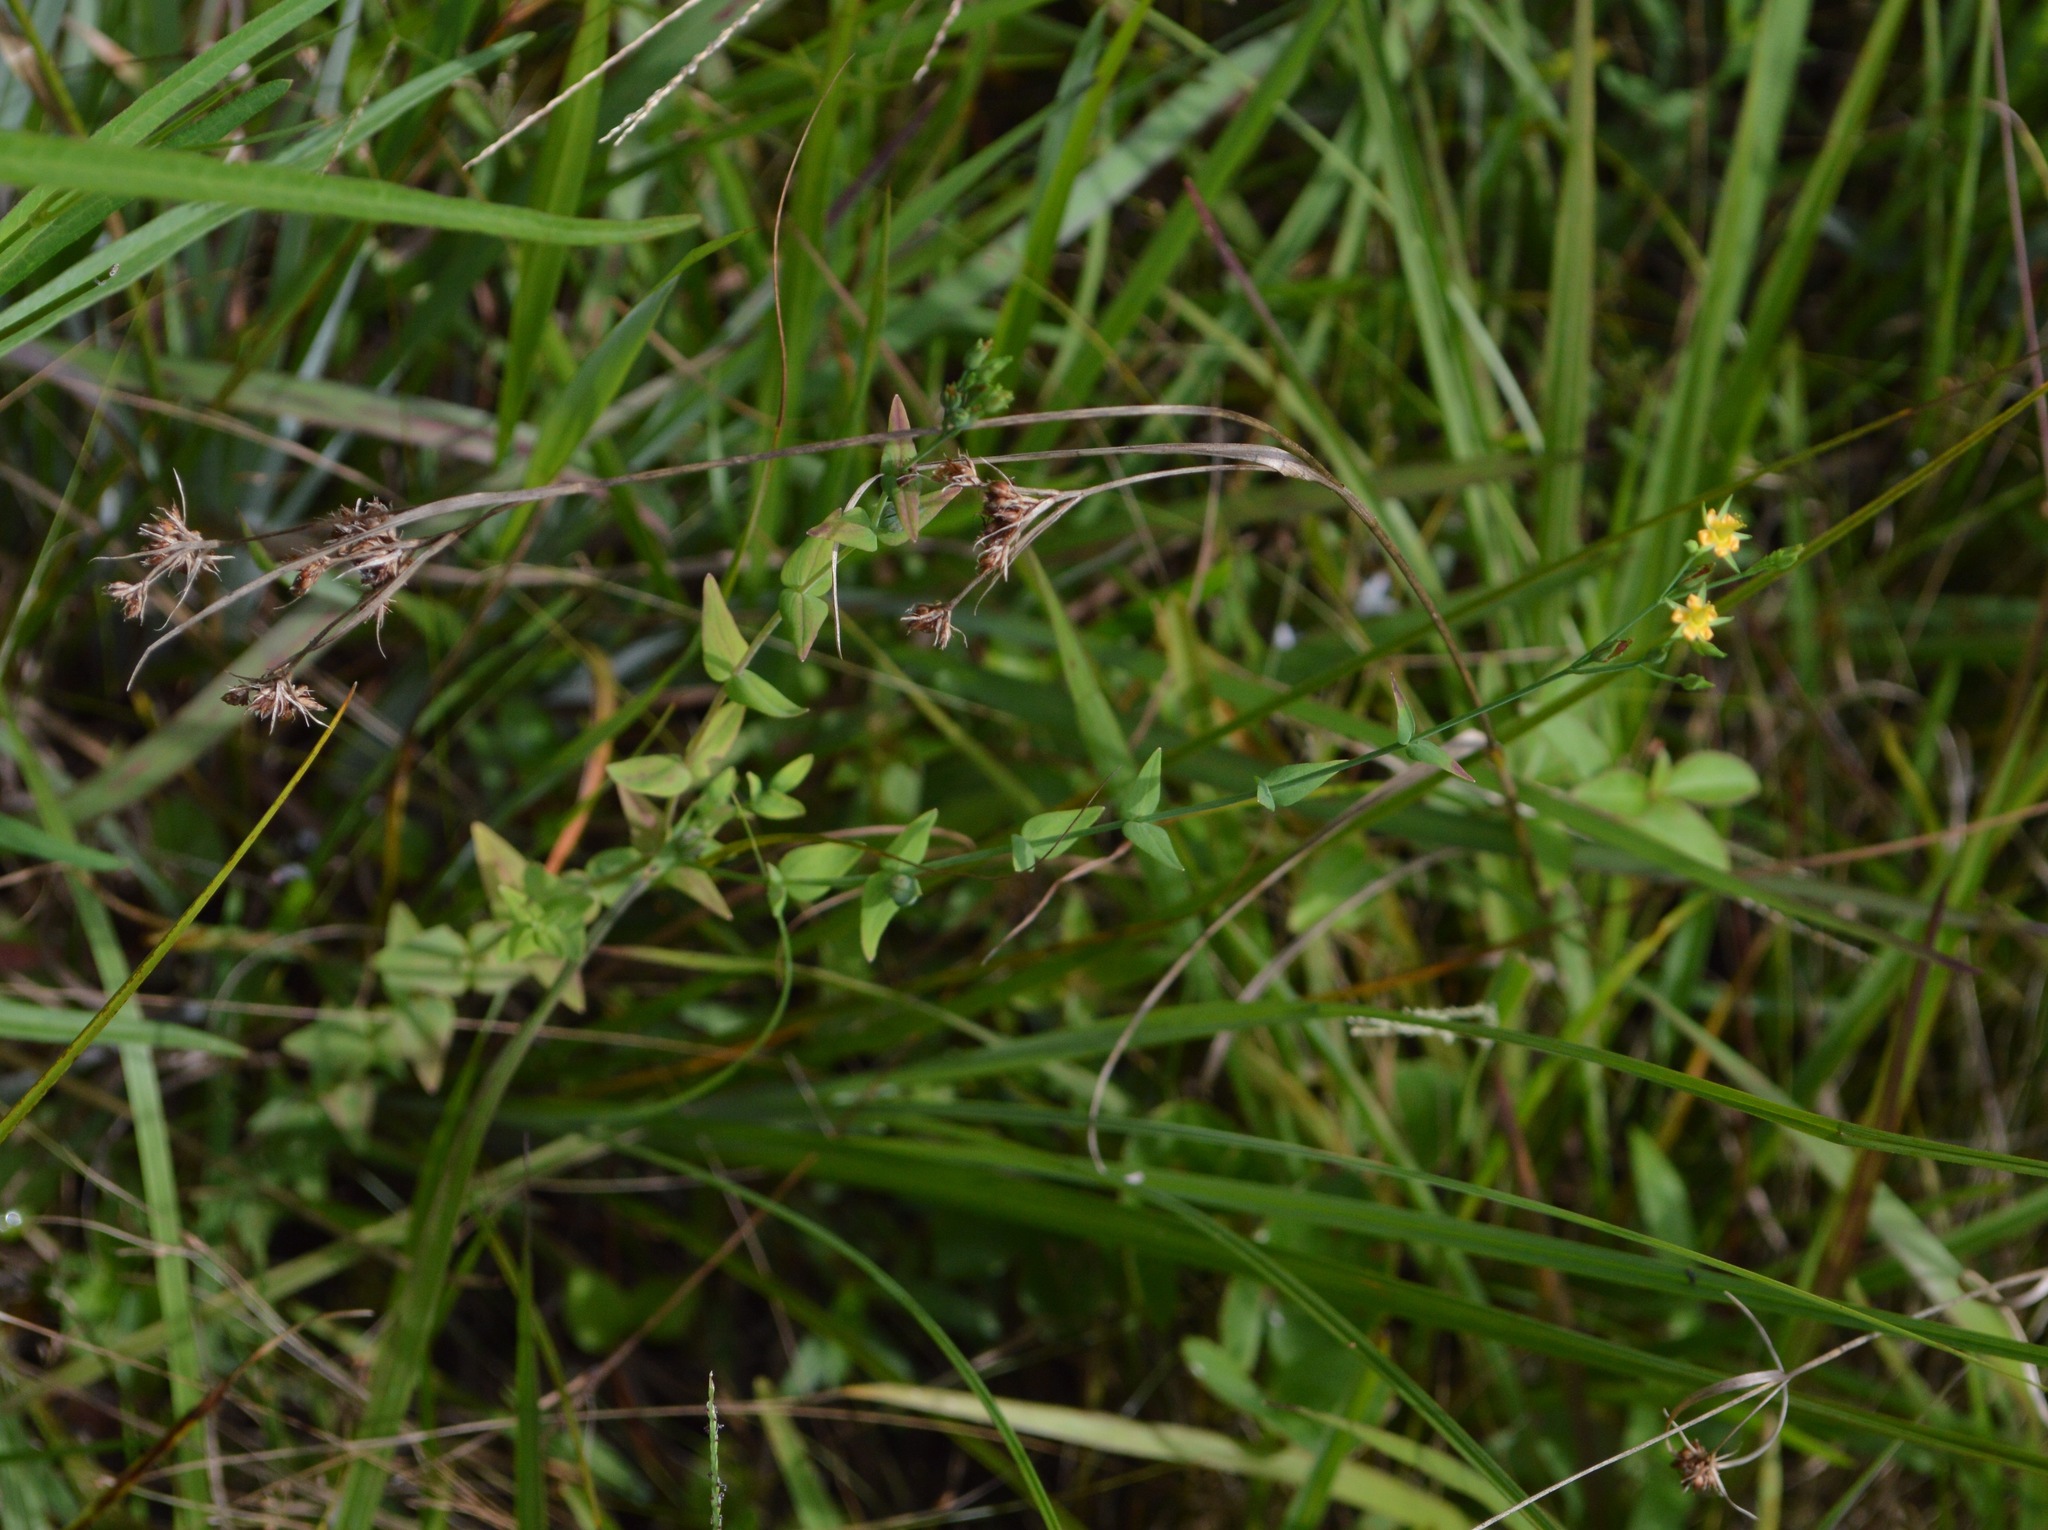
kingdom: Plantae
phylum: Tracheophyta
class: Magnoliopsida
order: Malpighiales
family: Hypericaceae
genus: Hypericum
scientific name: Hypericum gymnanthum
